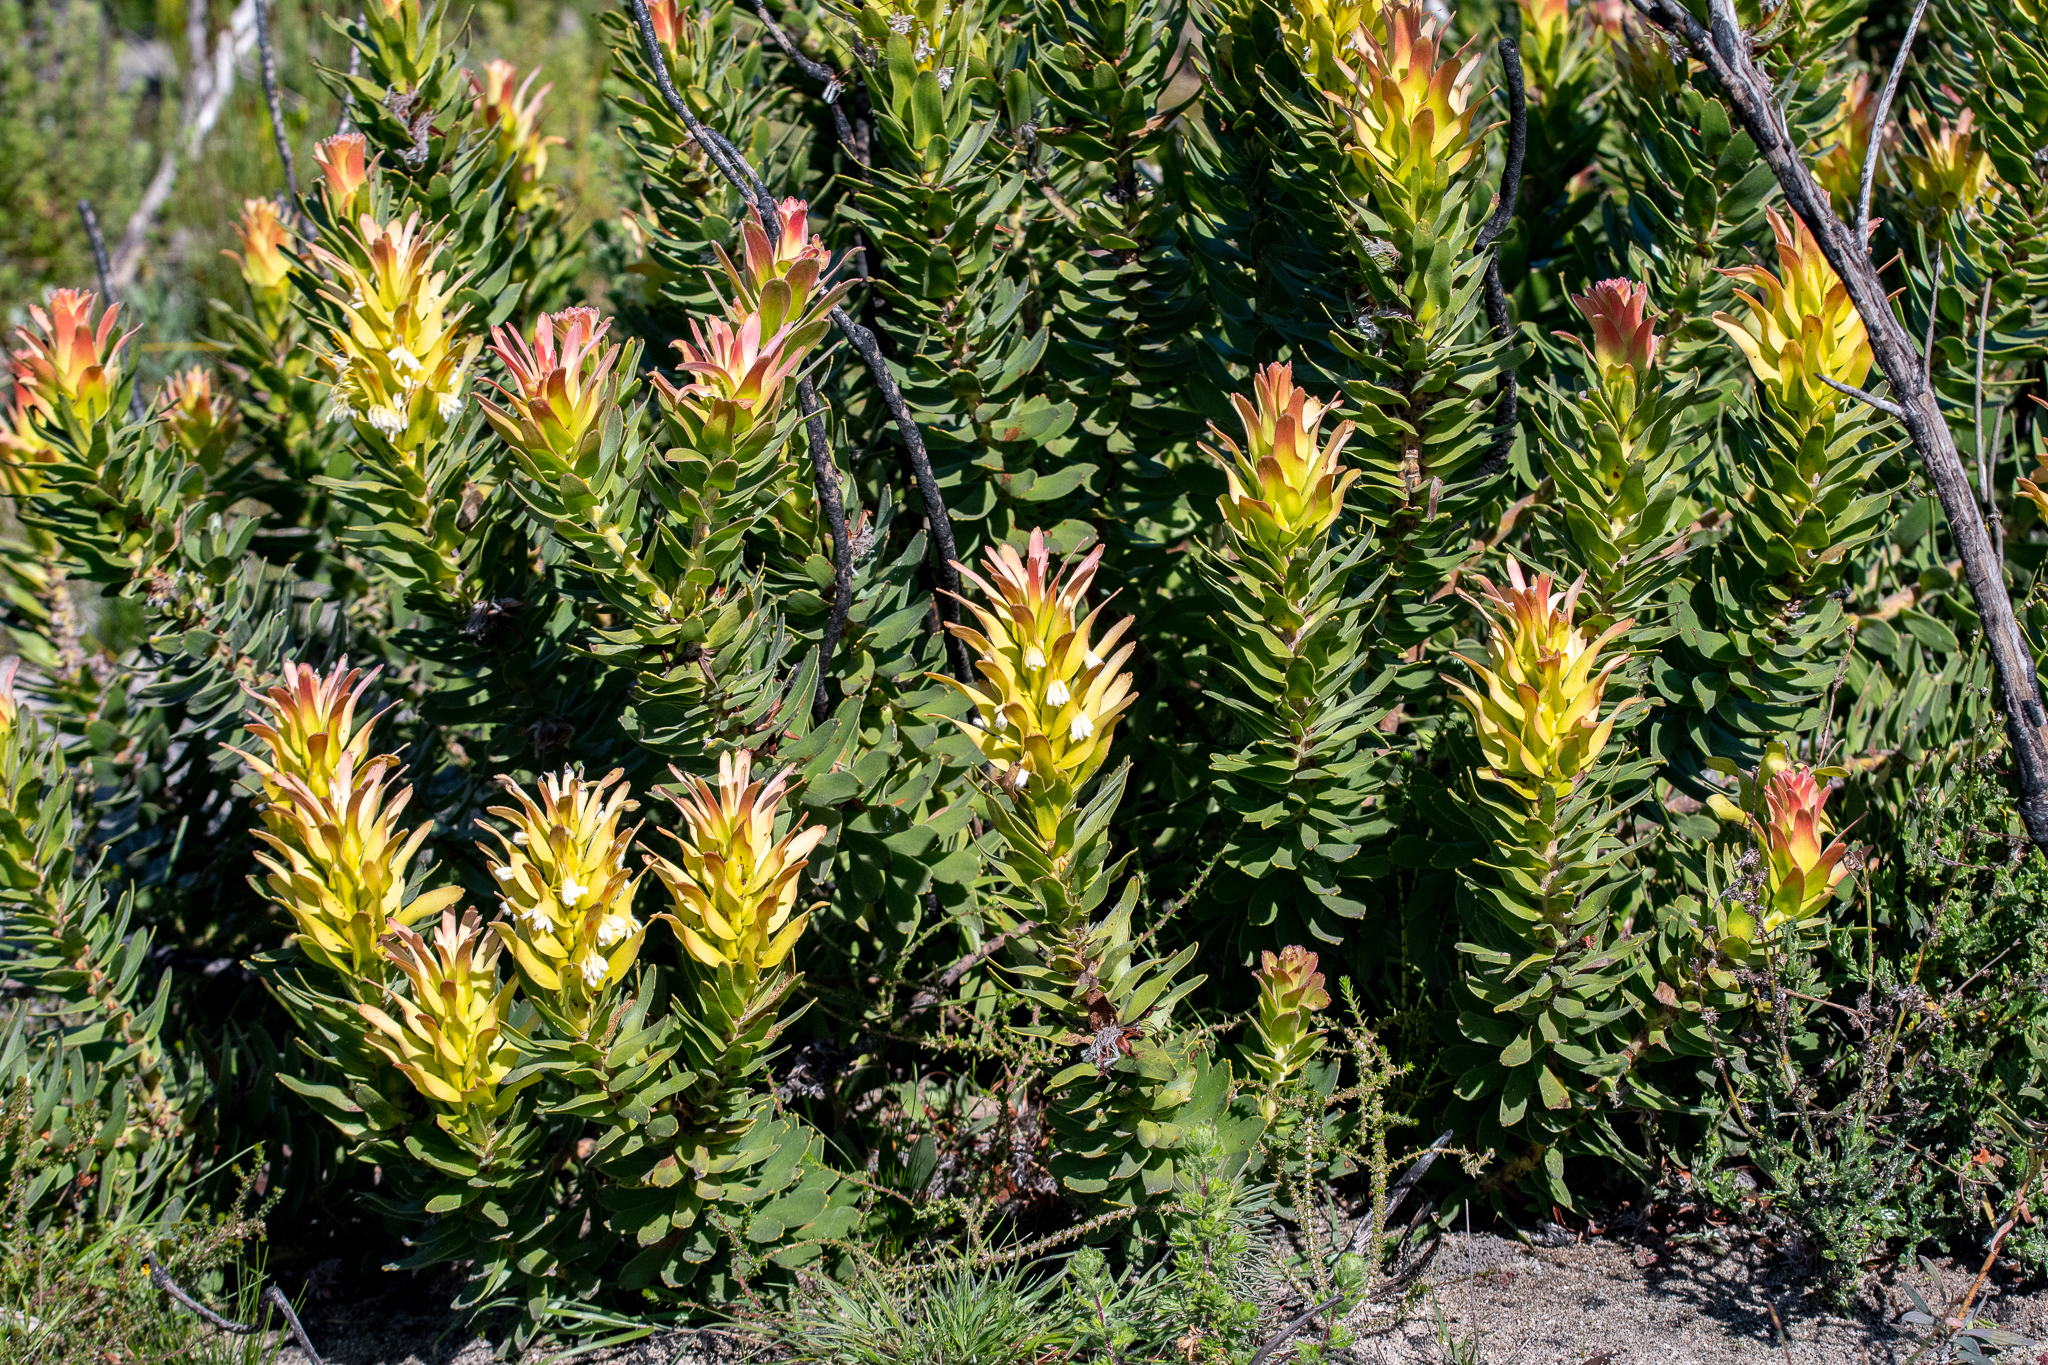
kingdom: Plantae
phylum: Tracheophyta
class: Magnoliopsida
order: Proteales
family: Proteaceae
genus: Mimetes
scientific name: Mimetes cucullatus
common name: Common pagoda
